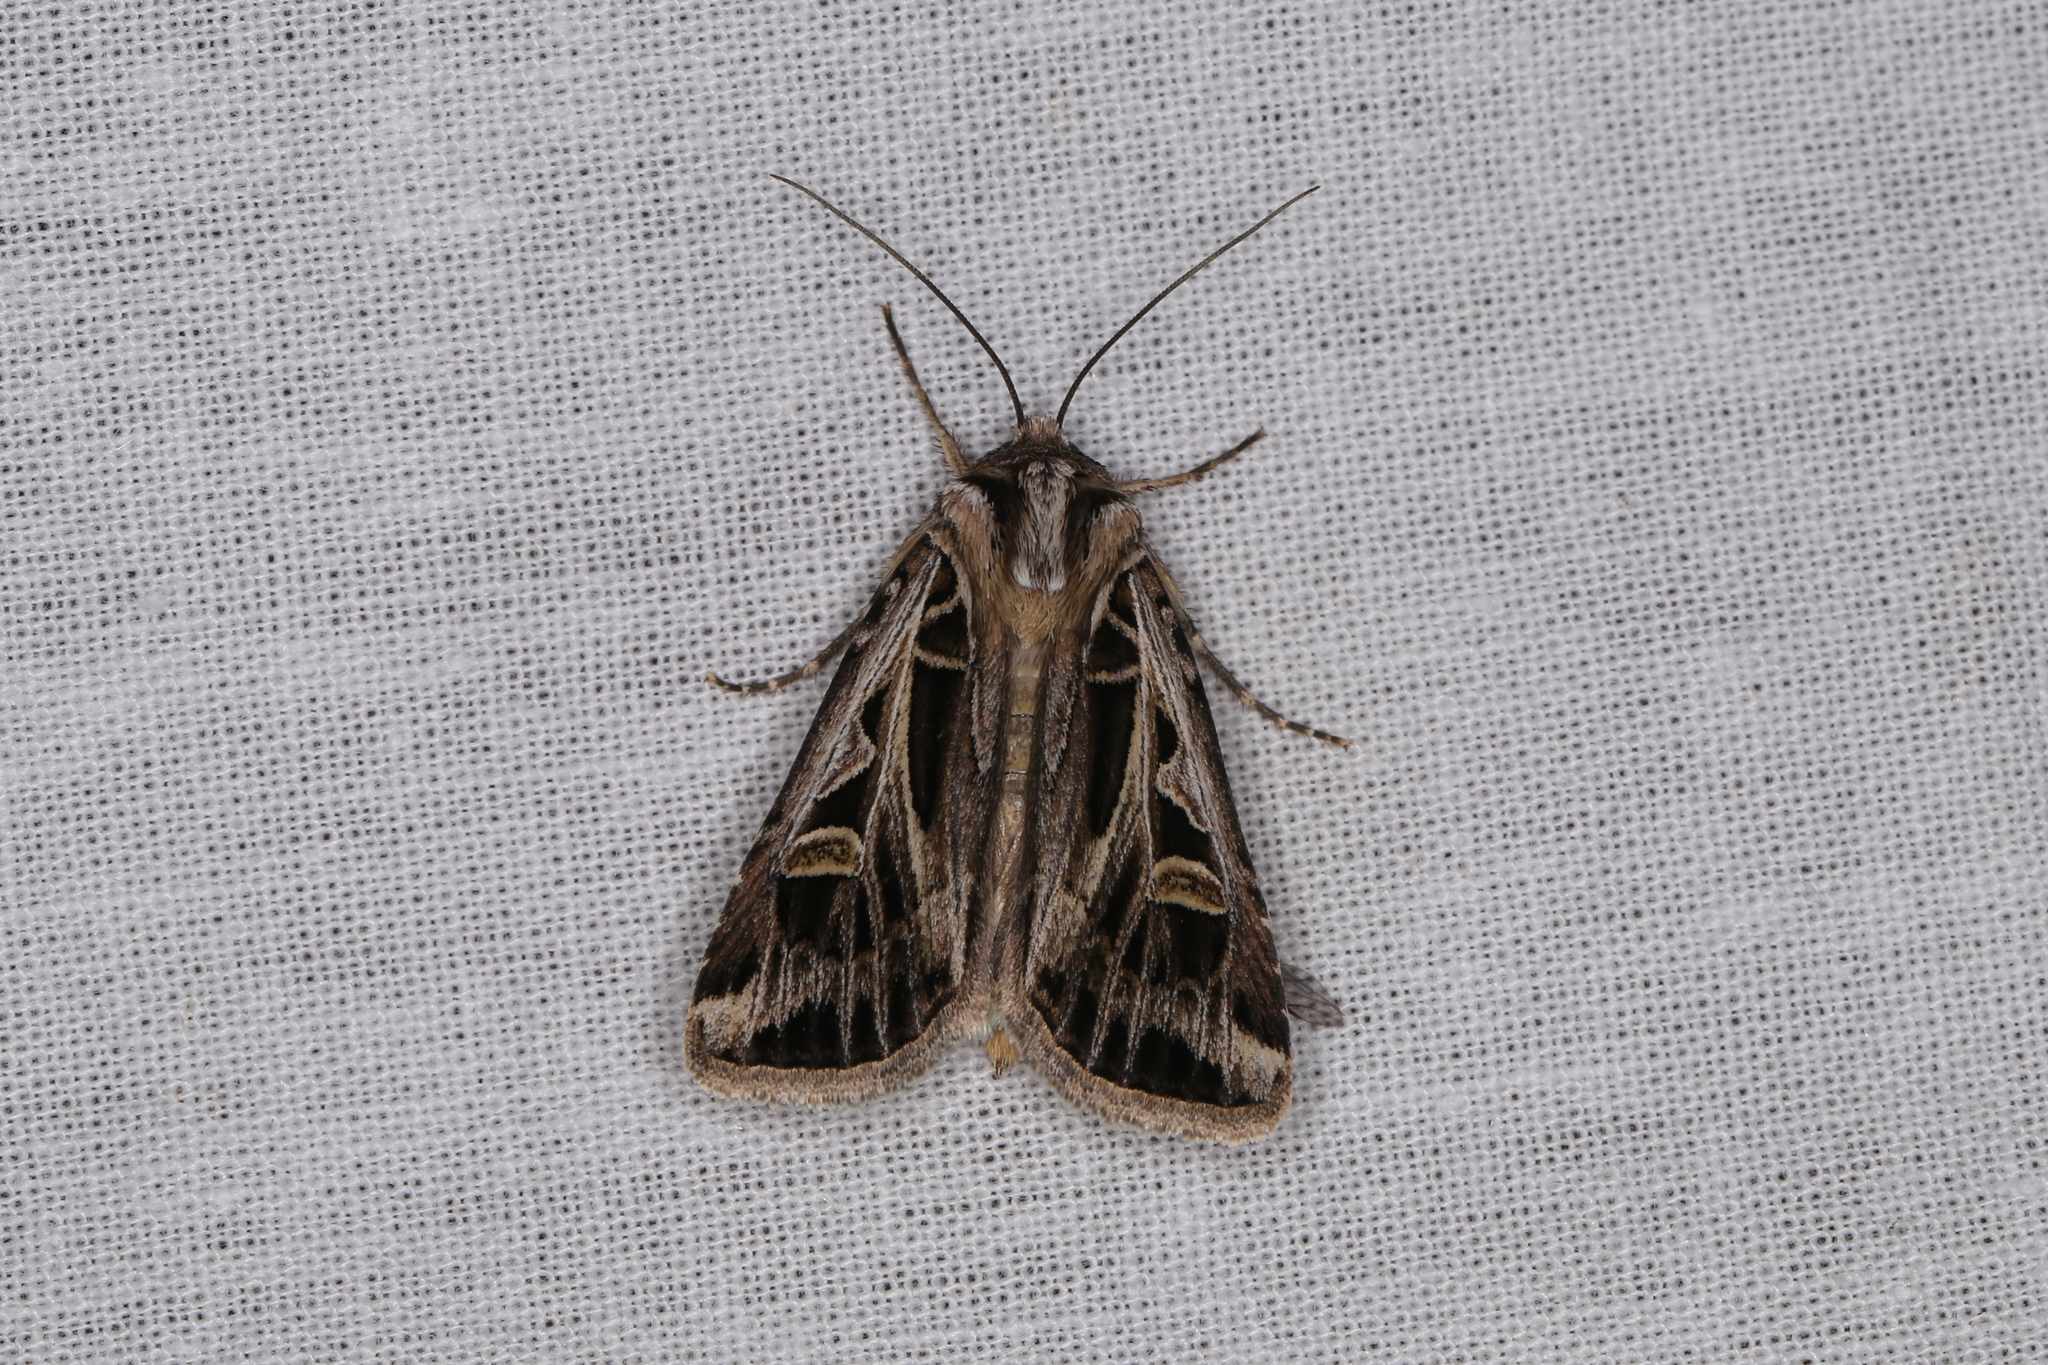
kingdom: Animalia
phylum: Arthropoda
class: Insecta
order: Lepidoptera
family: Noctuidae
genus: Feltia
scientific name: Feltia jaculifera
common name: Dingy cutworm moth
